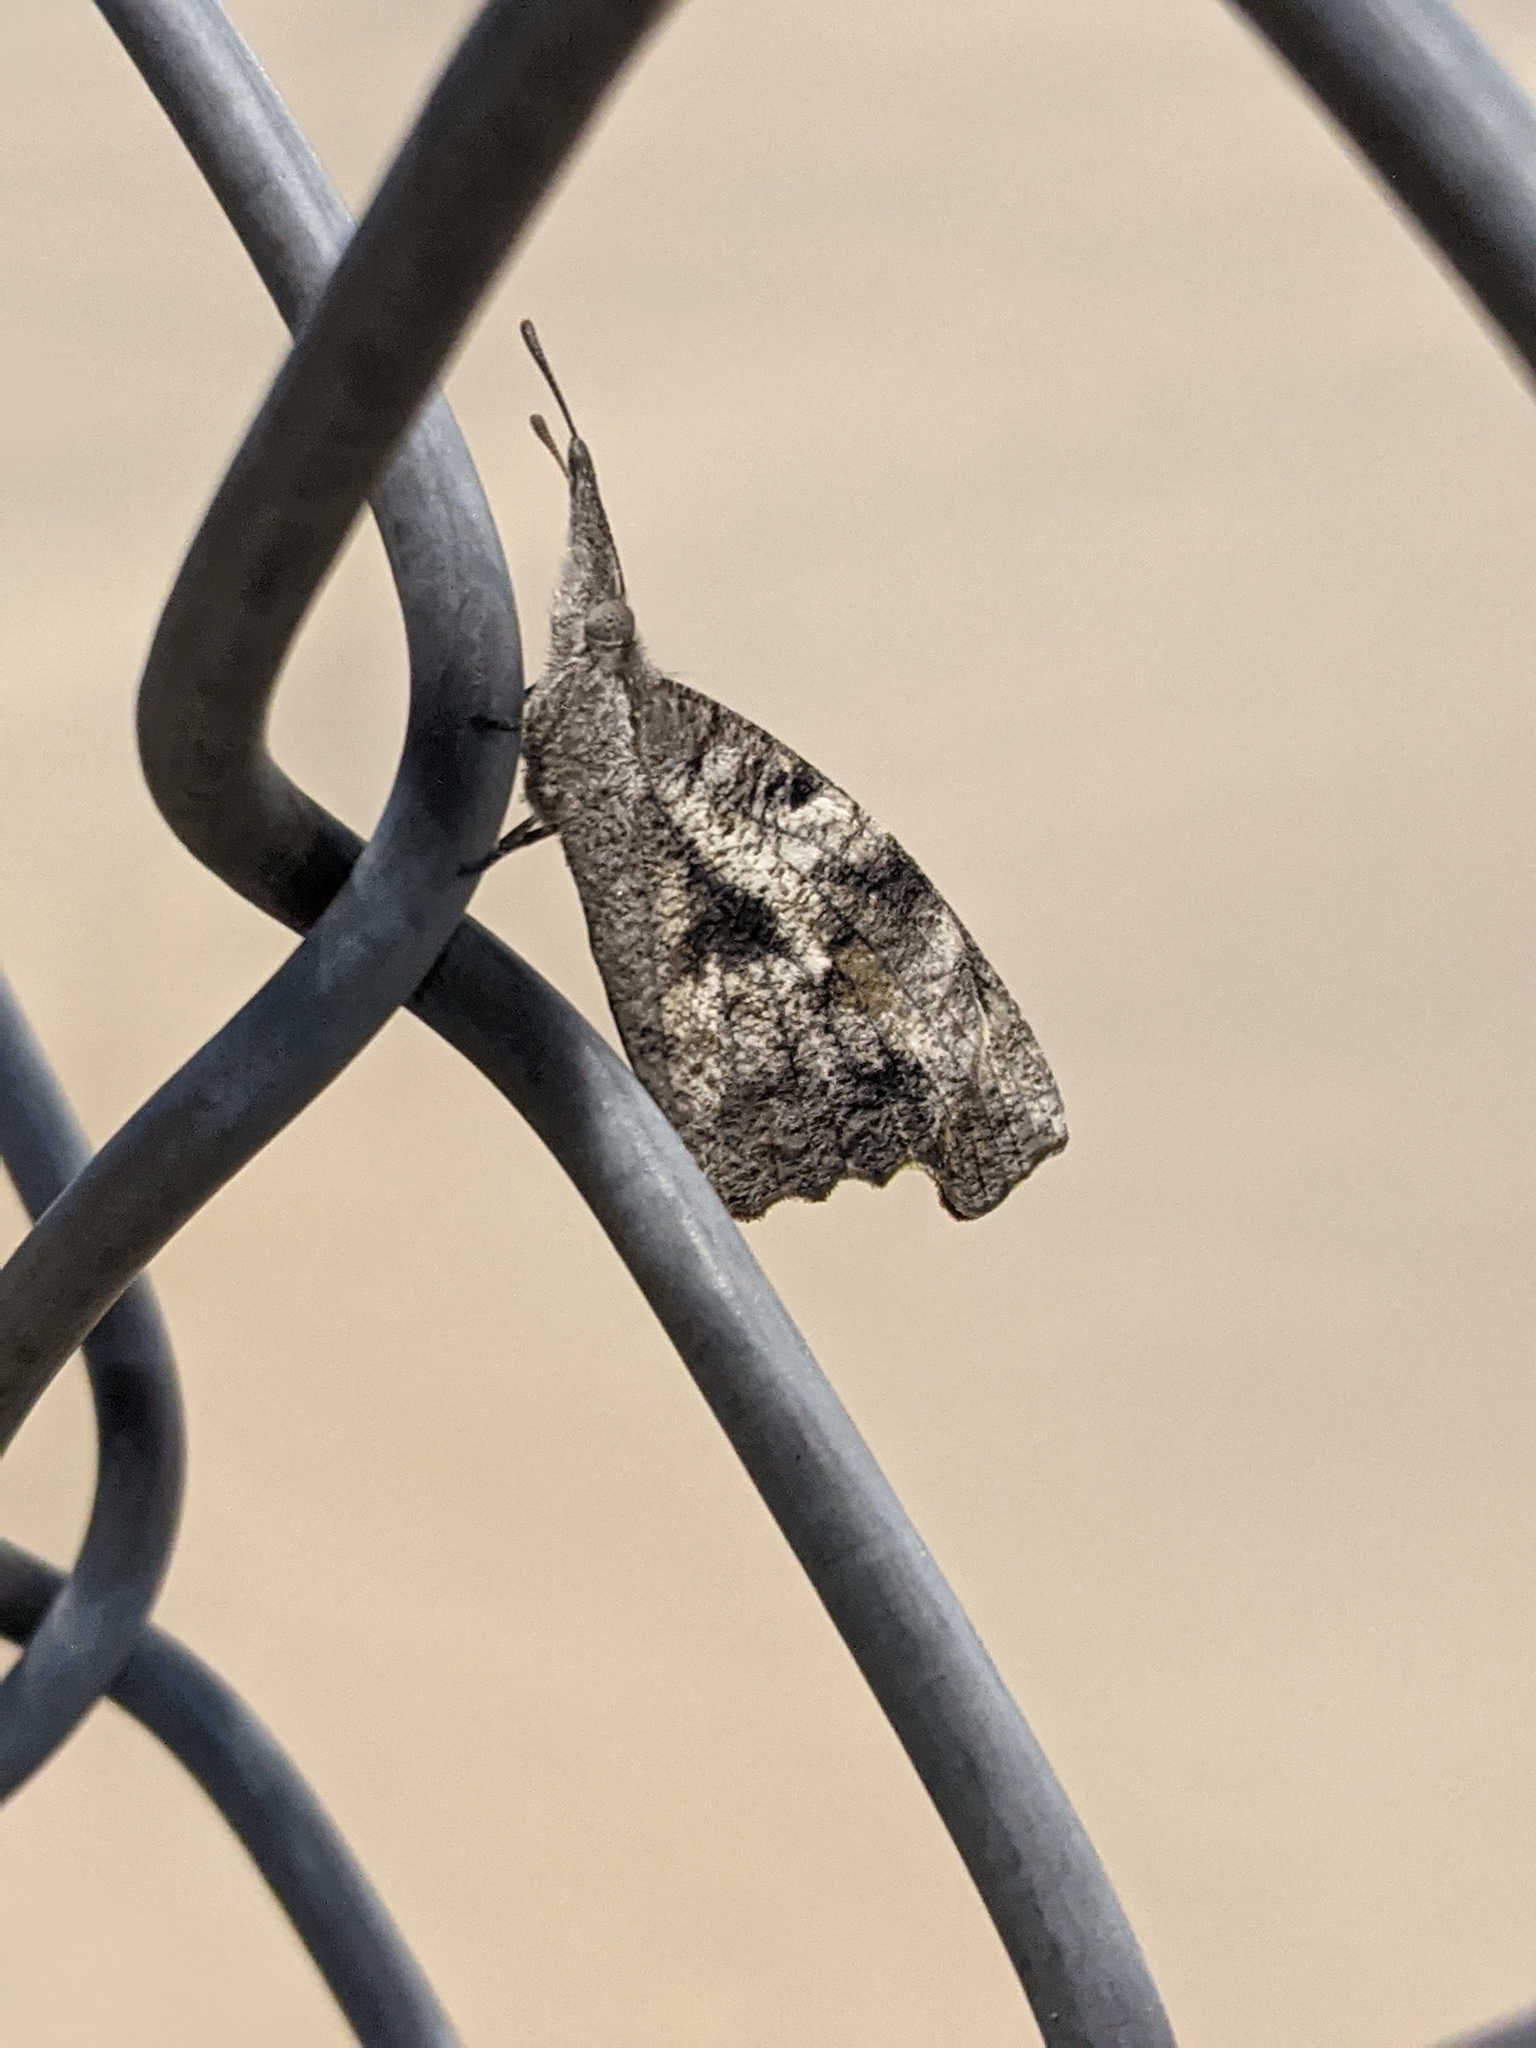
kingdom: Animalia
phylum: Arthropoda
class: Insecta
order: Lepidoptera
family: Nymphalidae
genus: Libytheana
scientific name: Libytheana carinenta
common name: American snout
